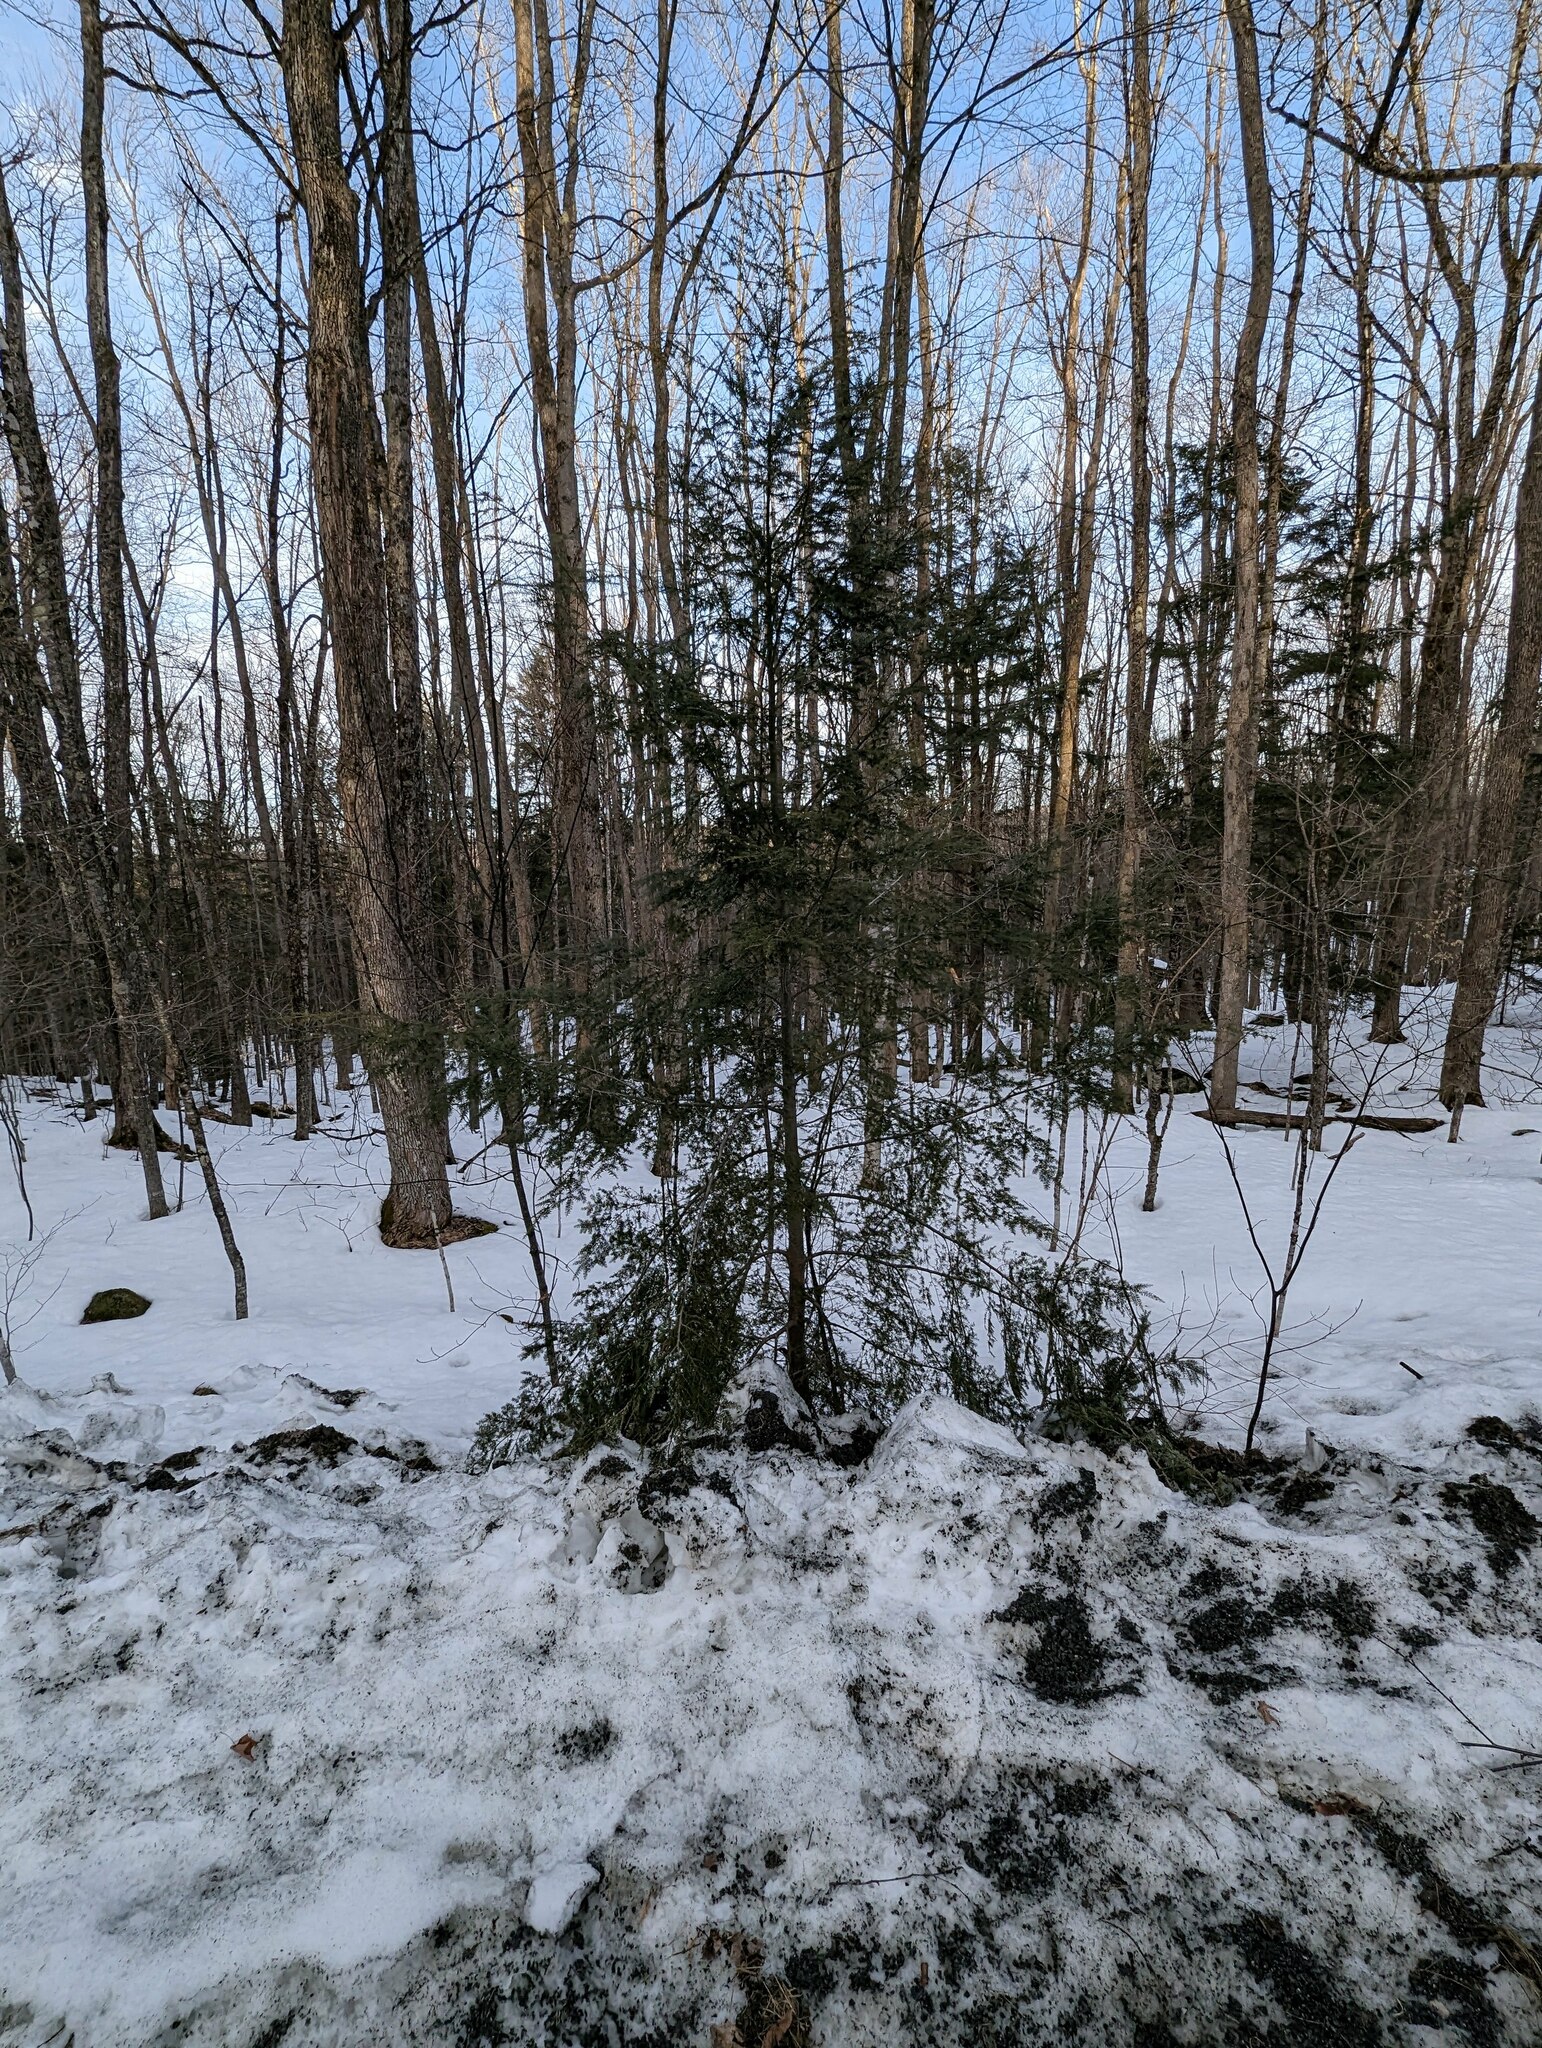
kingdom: Plantae
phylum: Tracheophyta
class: Pinopsida
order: Pinales
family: Pinaceae
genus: Tsuga
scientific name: Tsuga canadensis
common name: Eastern hemlock
